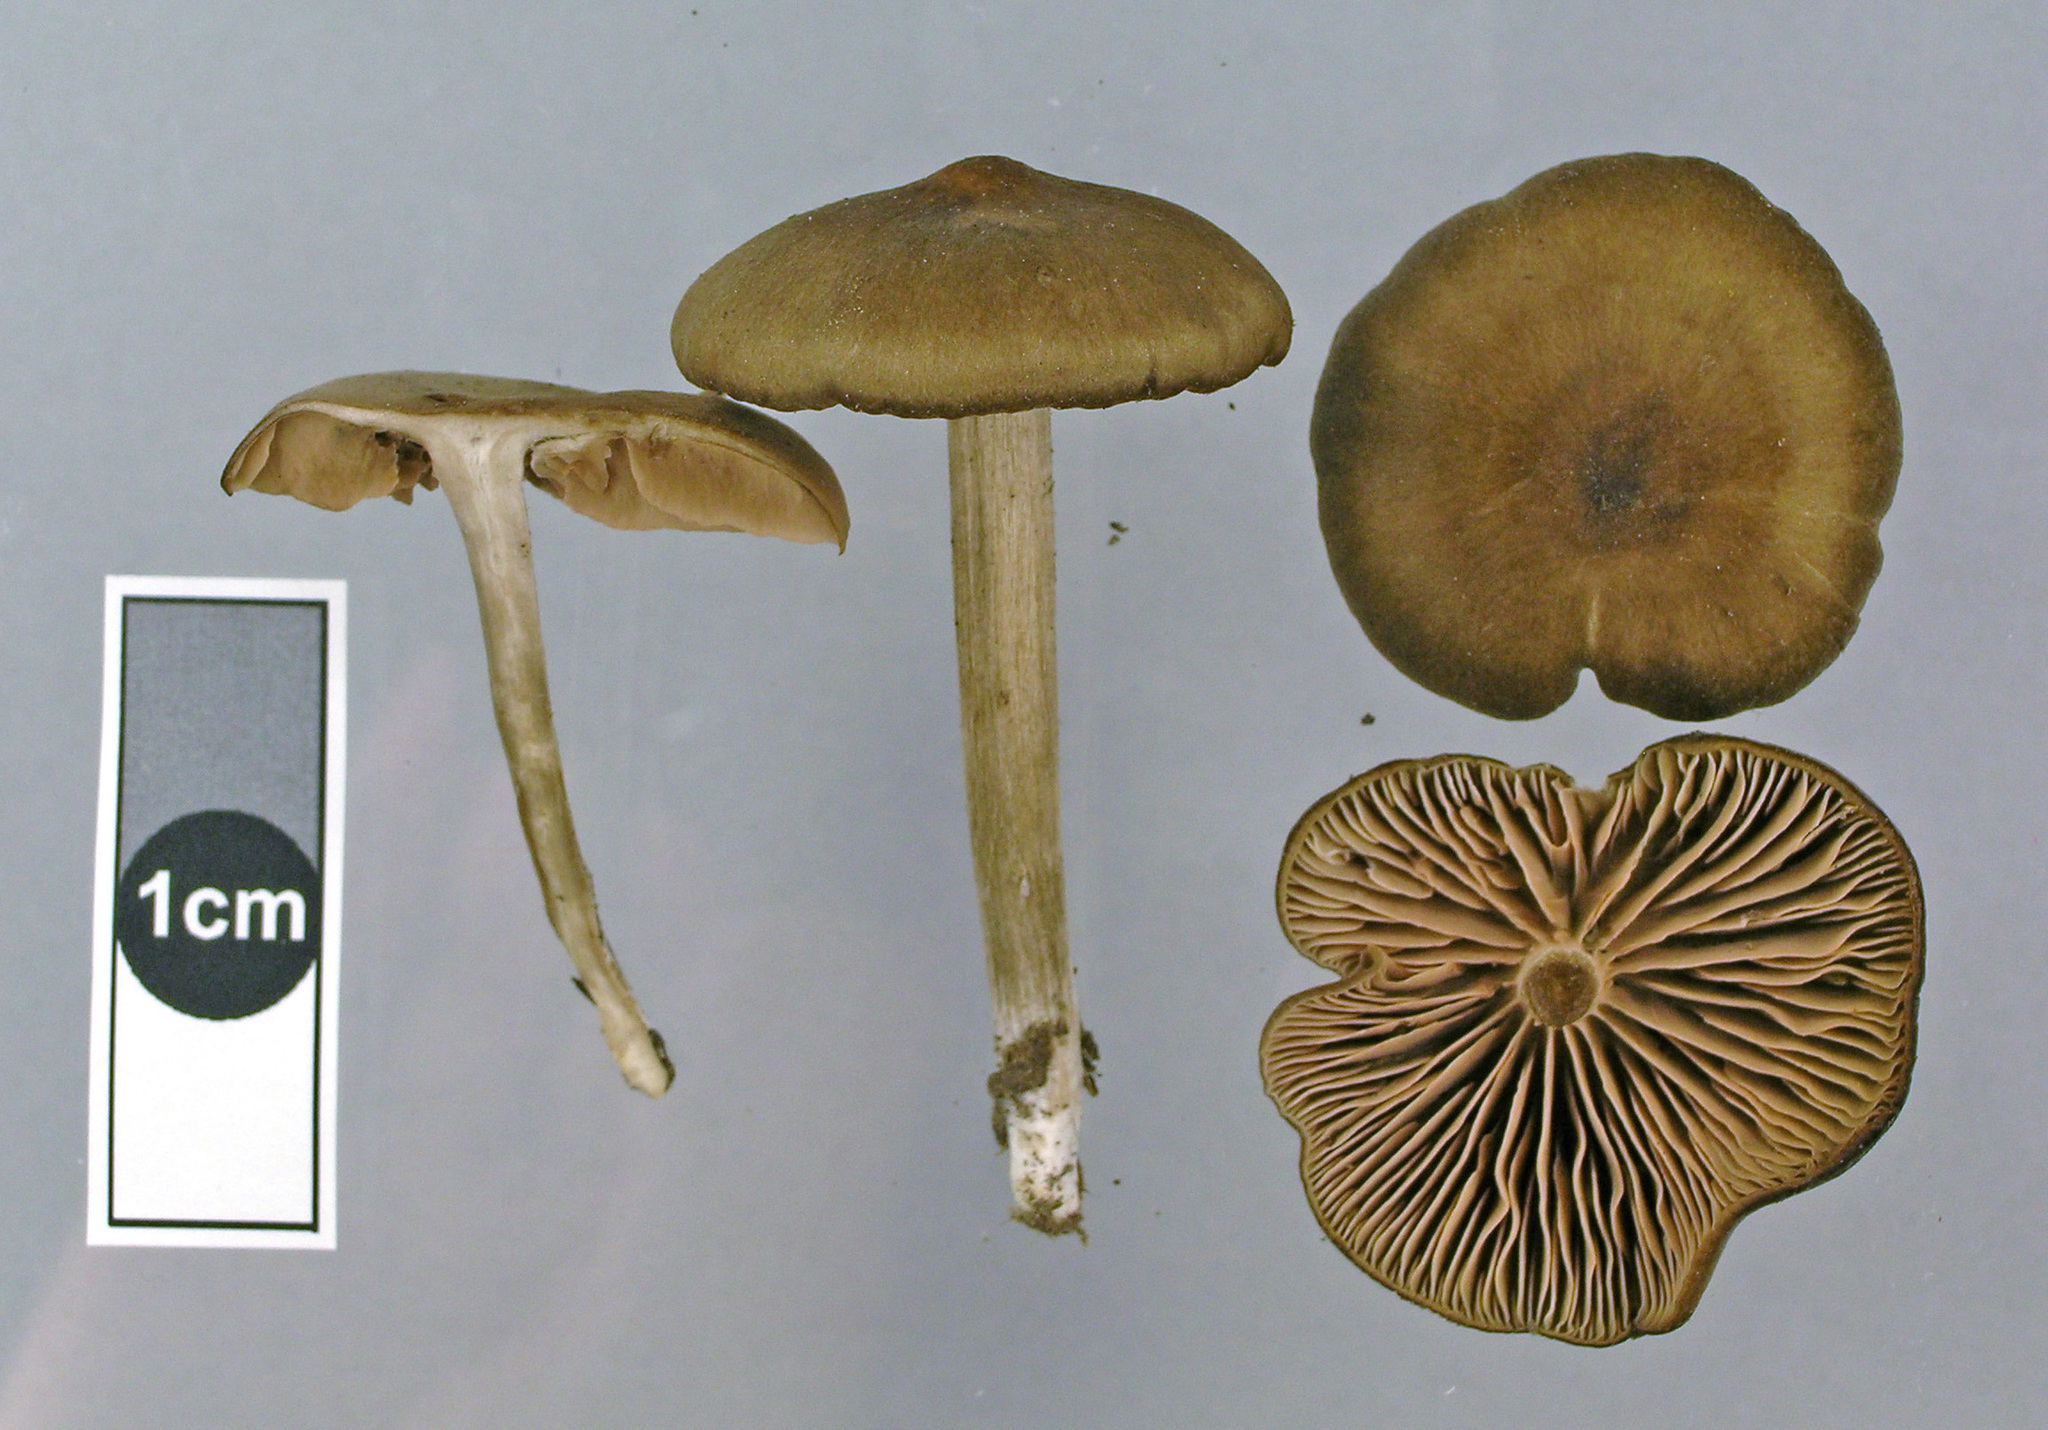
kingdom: Fungi
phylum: Basidiomycota
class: Agaricomycetes
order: Agaricales
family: Entolomataceae
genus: Entoloma
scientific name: Entoloma sericeum
